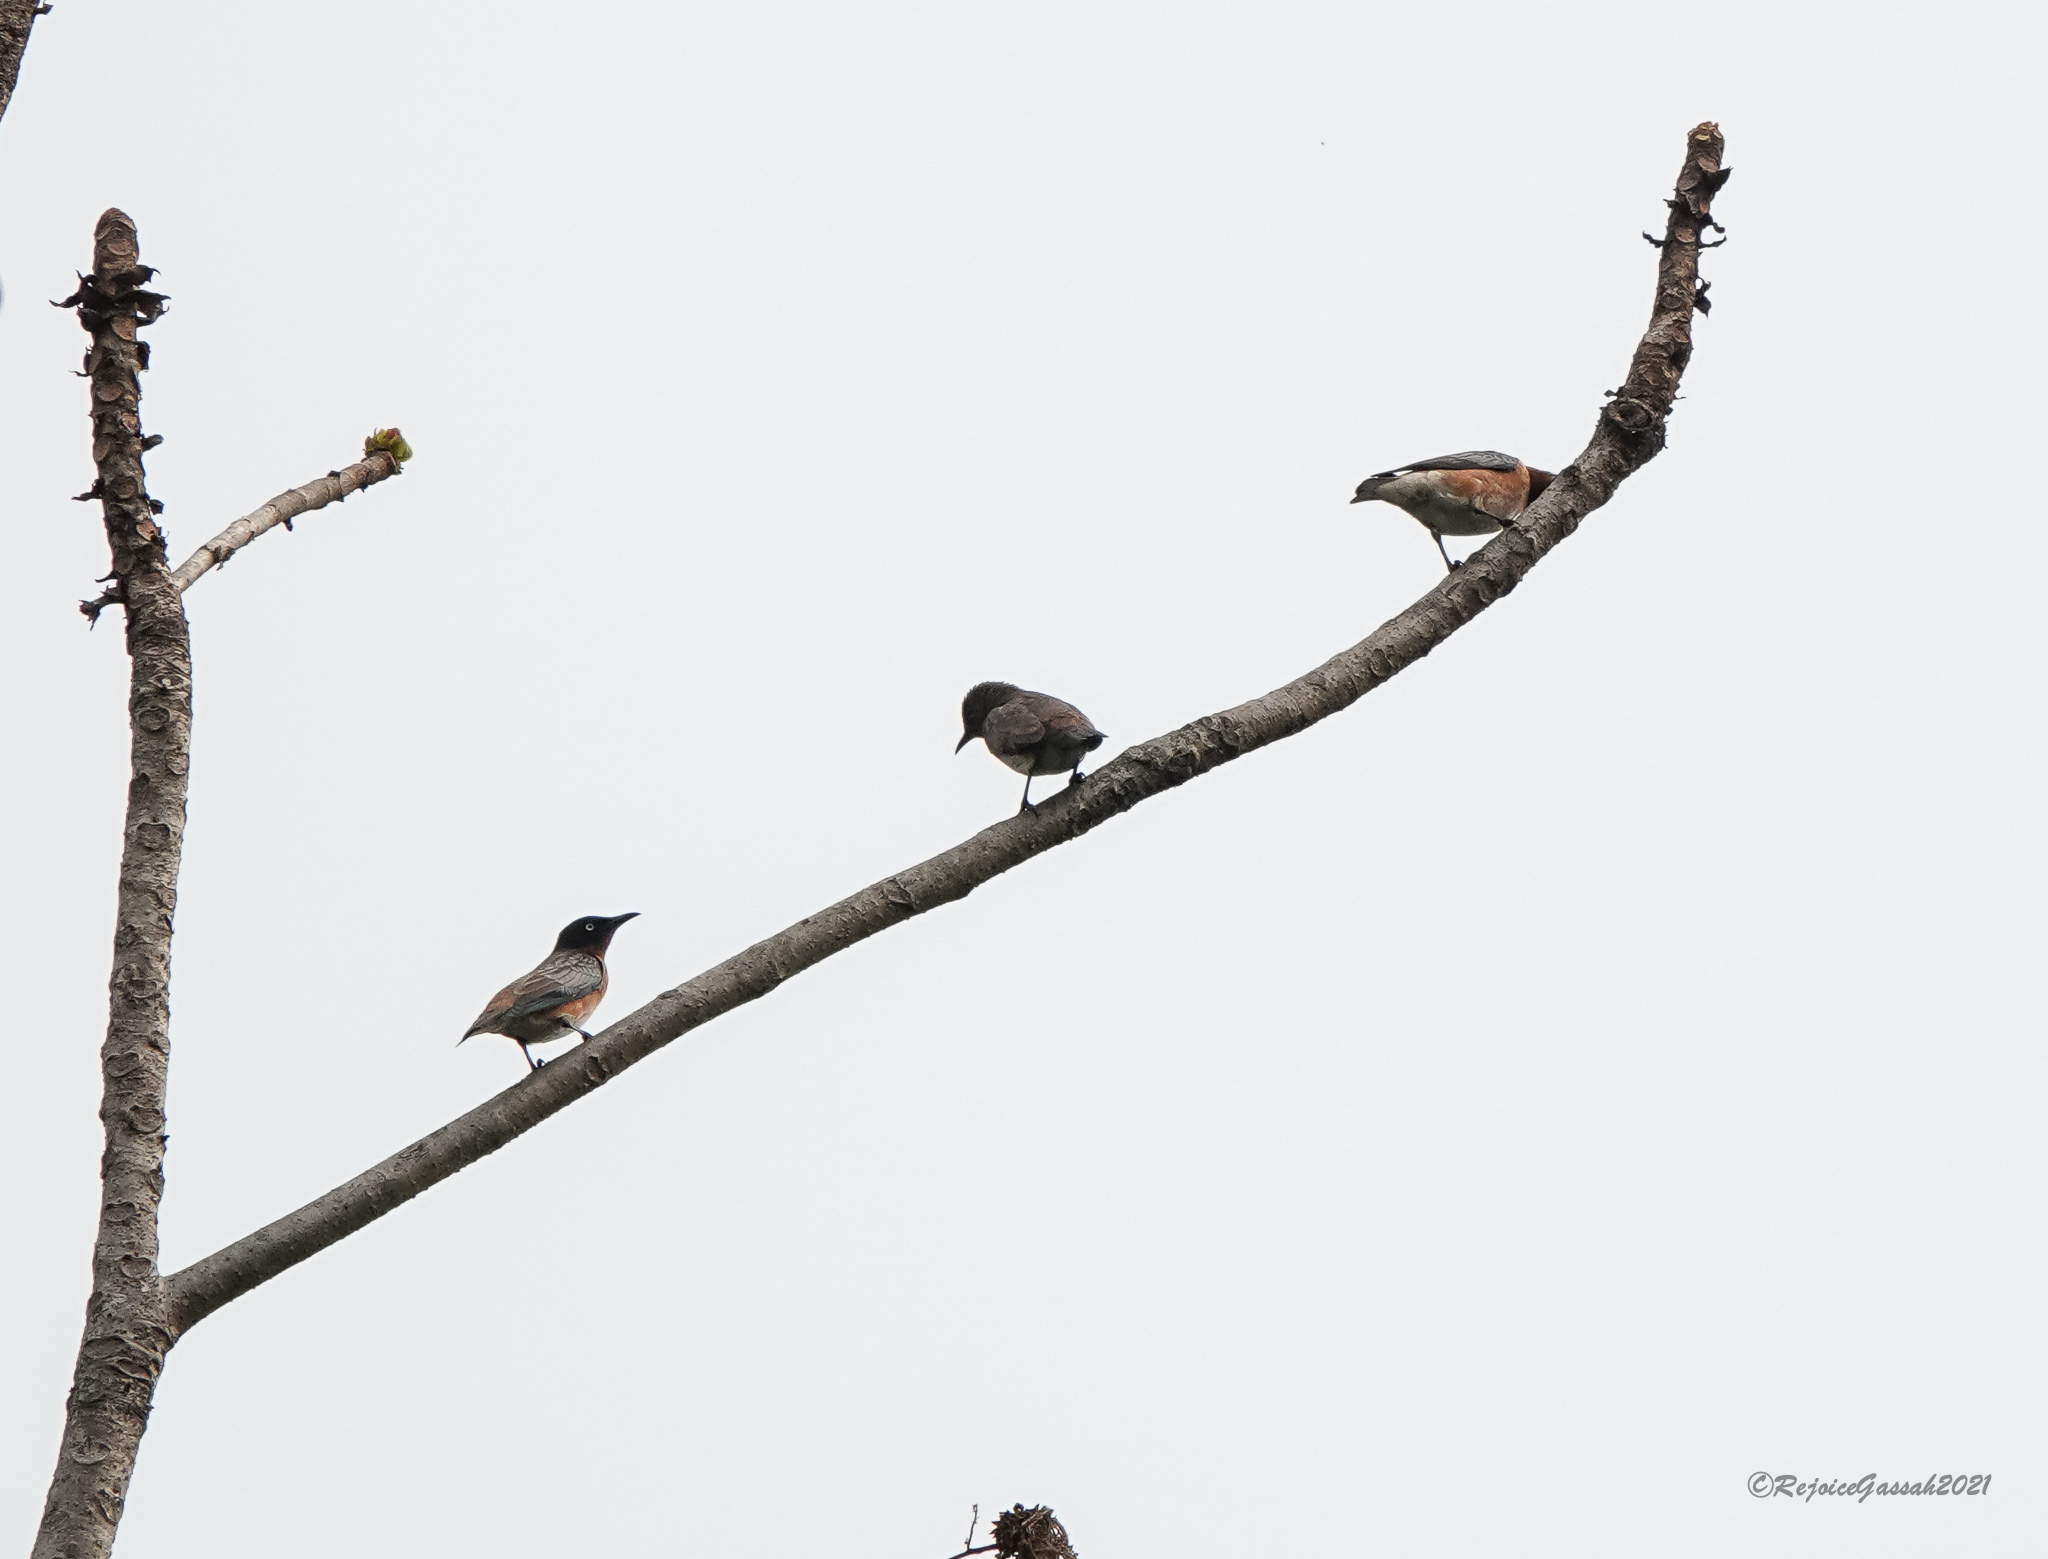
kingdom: Animalia
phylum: Chordata
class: Aves
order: Passeriformes
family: Sturnidae
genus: Saroglossa
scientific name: Saroglossa spiloptera
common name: Spot-winged starling
